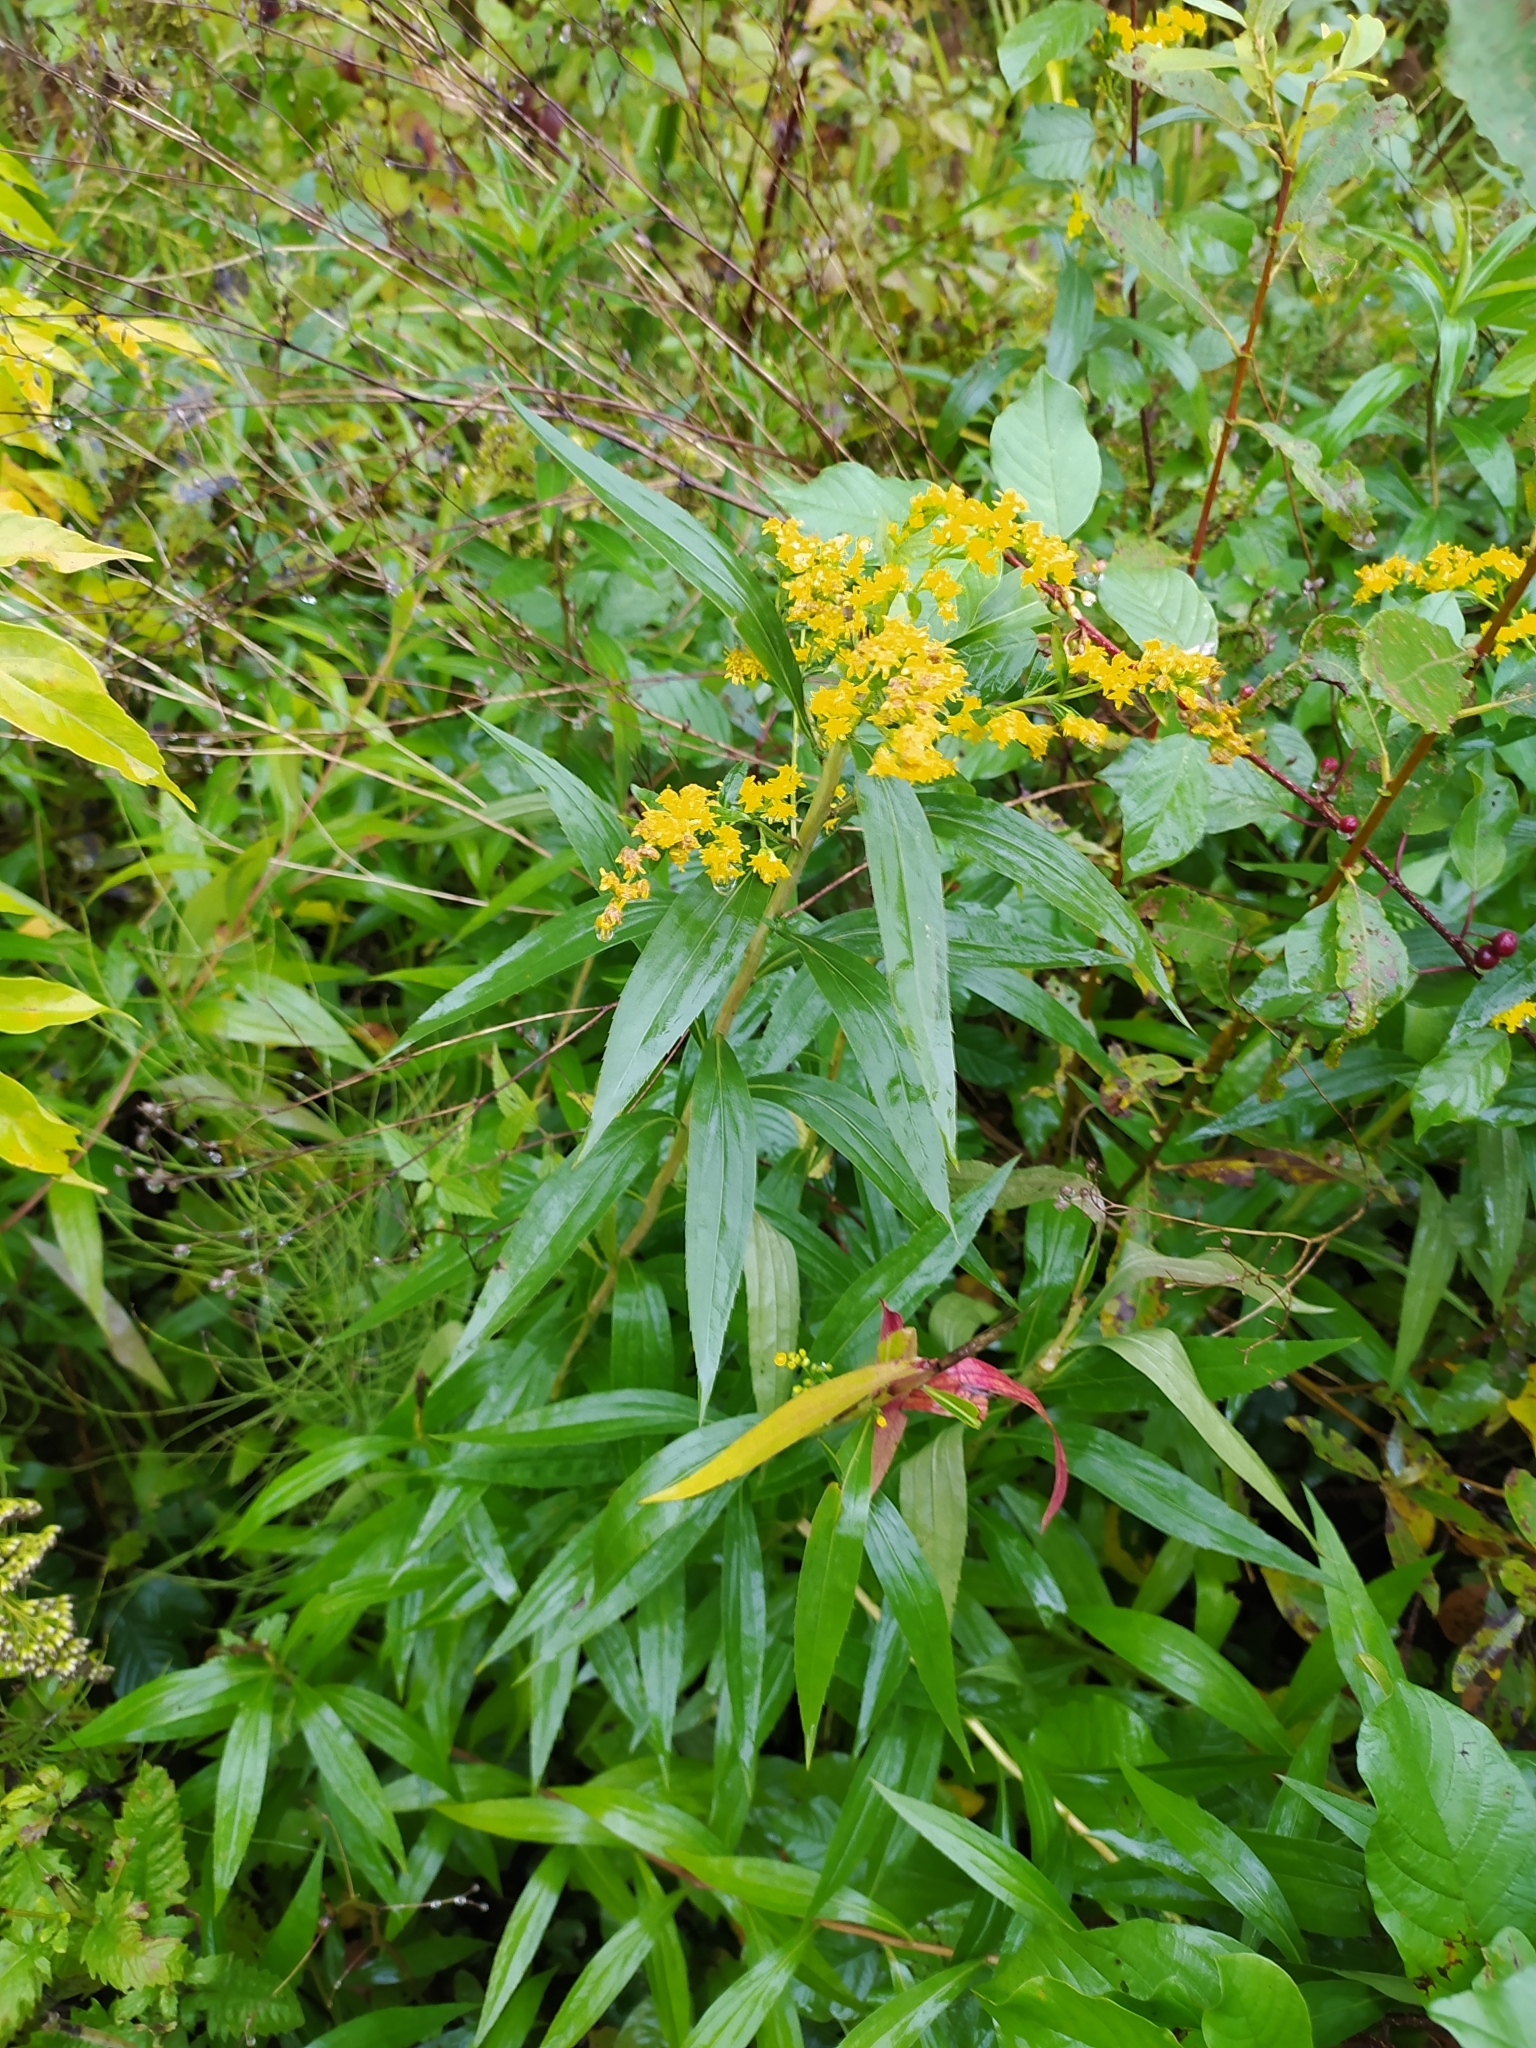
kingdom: Plantae
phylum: Tracheophyta
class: Magnoliopsida
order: Asterales
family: Asteraceae
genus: Solidago
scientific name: Solidago canadensis
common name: Canada goldenrod
